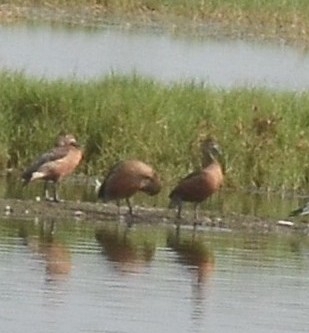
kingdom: Animalia
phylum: Chordata
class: Aves
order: Anseriformes
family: Anatidae
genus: Dendrocygna
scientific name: Dendrocygna javanica
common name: Lesser whistling-duck
